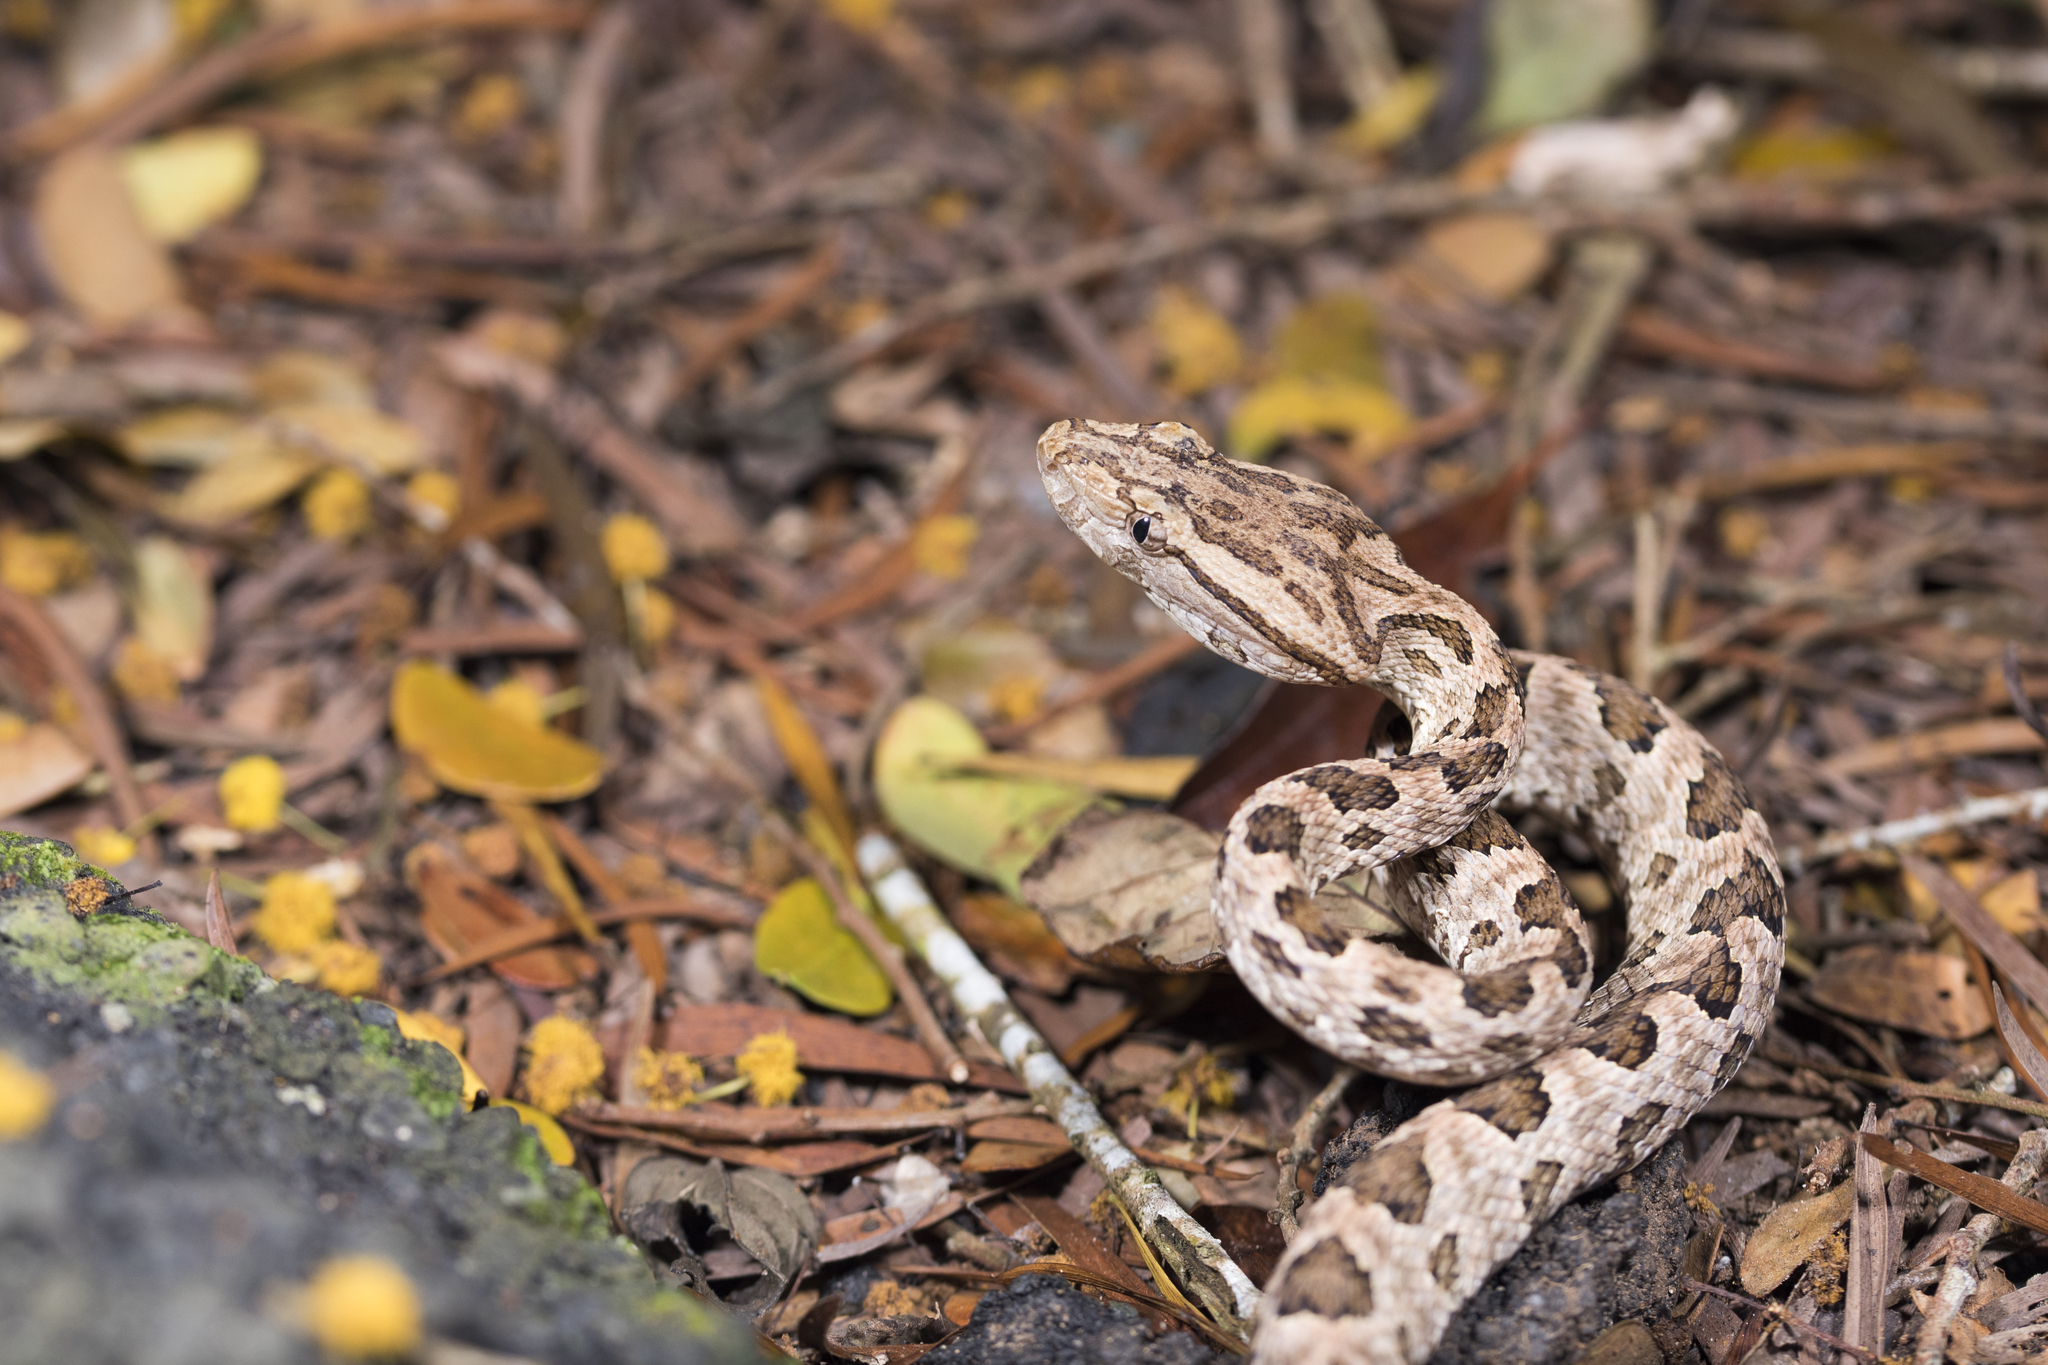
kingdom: Animalia
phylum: Chordata
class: Squamata
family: Viperidae
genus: Protobothrops
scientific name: Protobothrops mucrosquamatus
